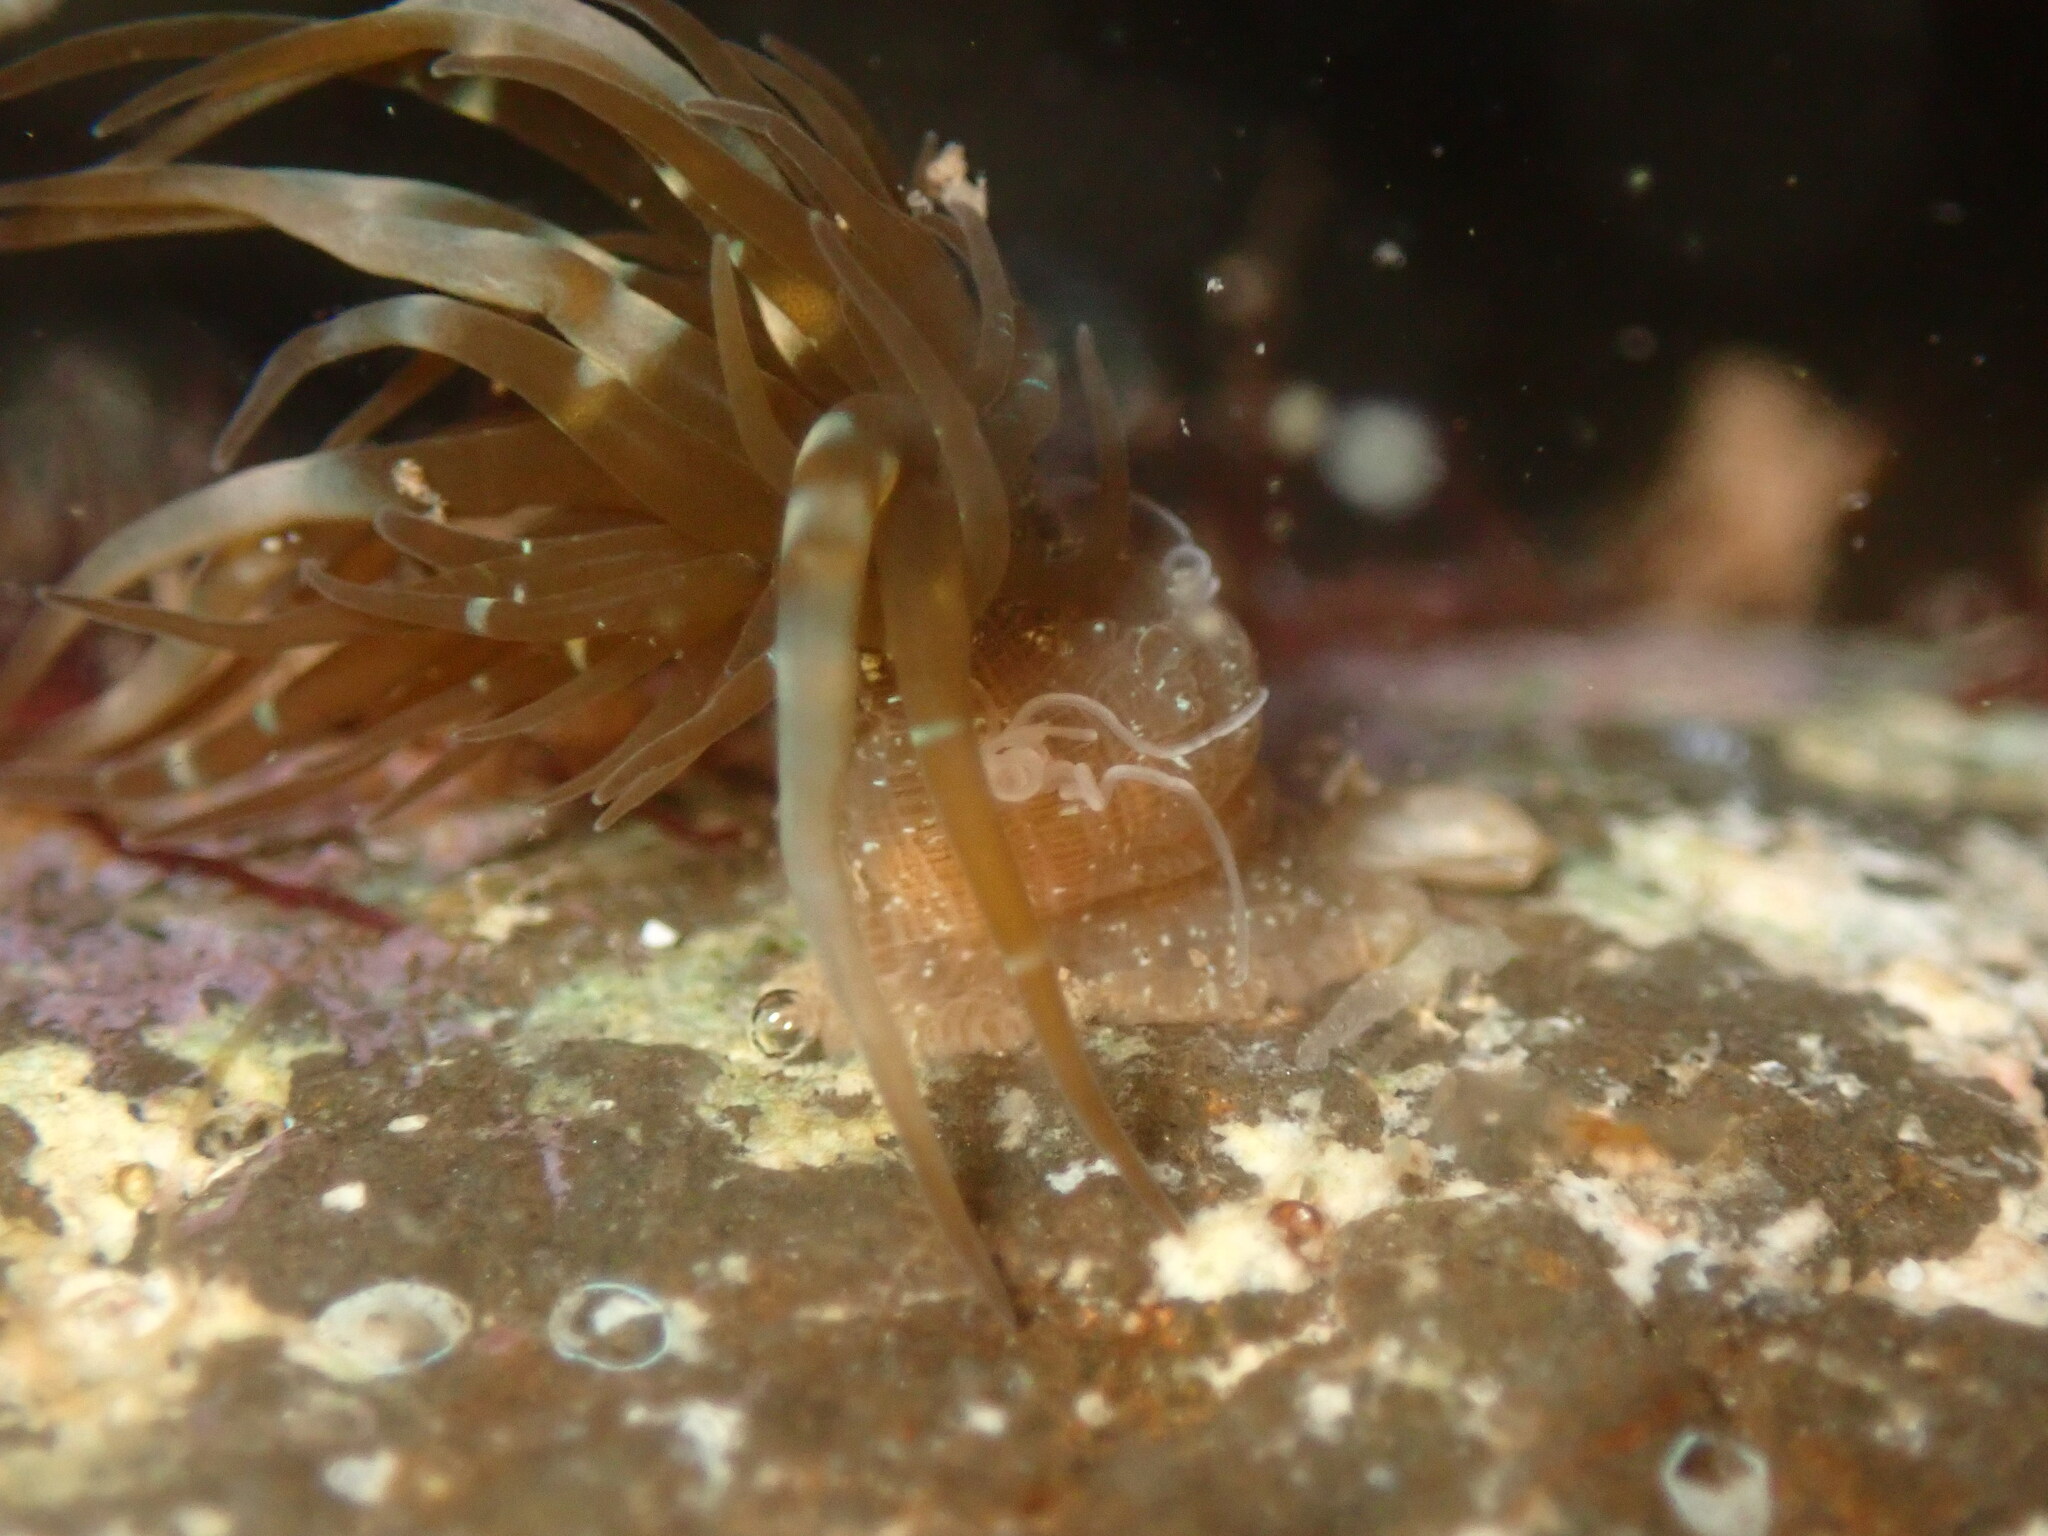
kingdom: Animalia
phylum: Cnidaria
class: Anthozoa
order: Actiniaria
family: Aiptasiidae
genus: Exaiptasia
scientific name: Exaiptasia diaphana
